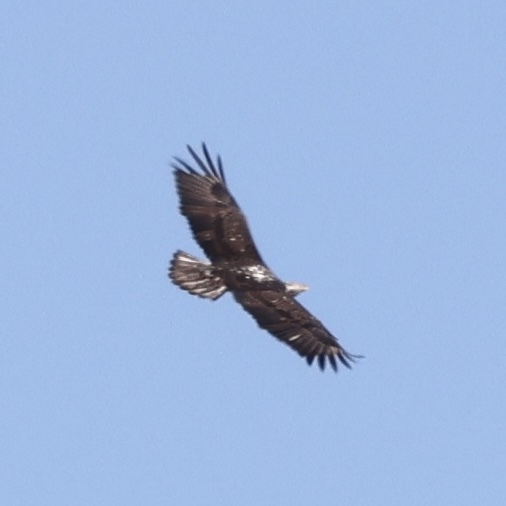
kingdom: Animalia
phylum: Chordata
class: Aves
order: Accipitriformes
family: Accipitridae
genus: Haliaeetus
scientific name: Haliaeetus leucocephalus
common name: Bald eagle
